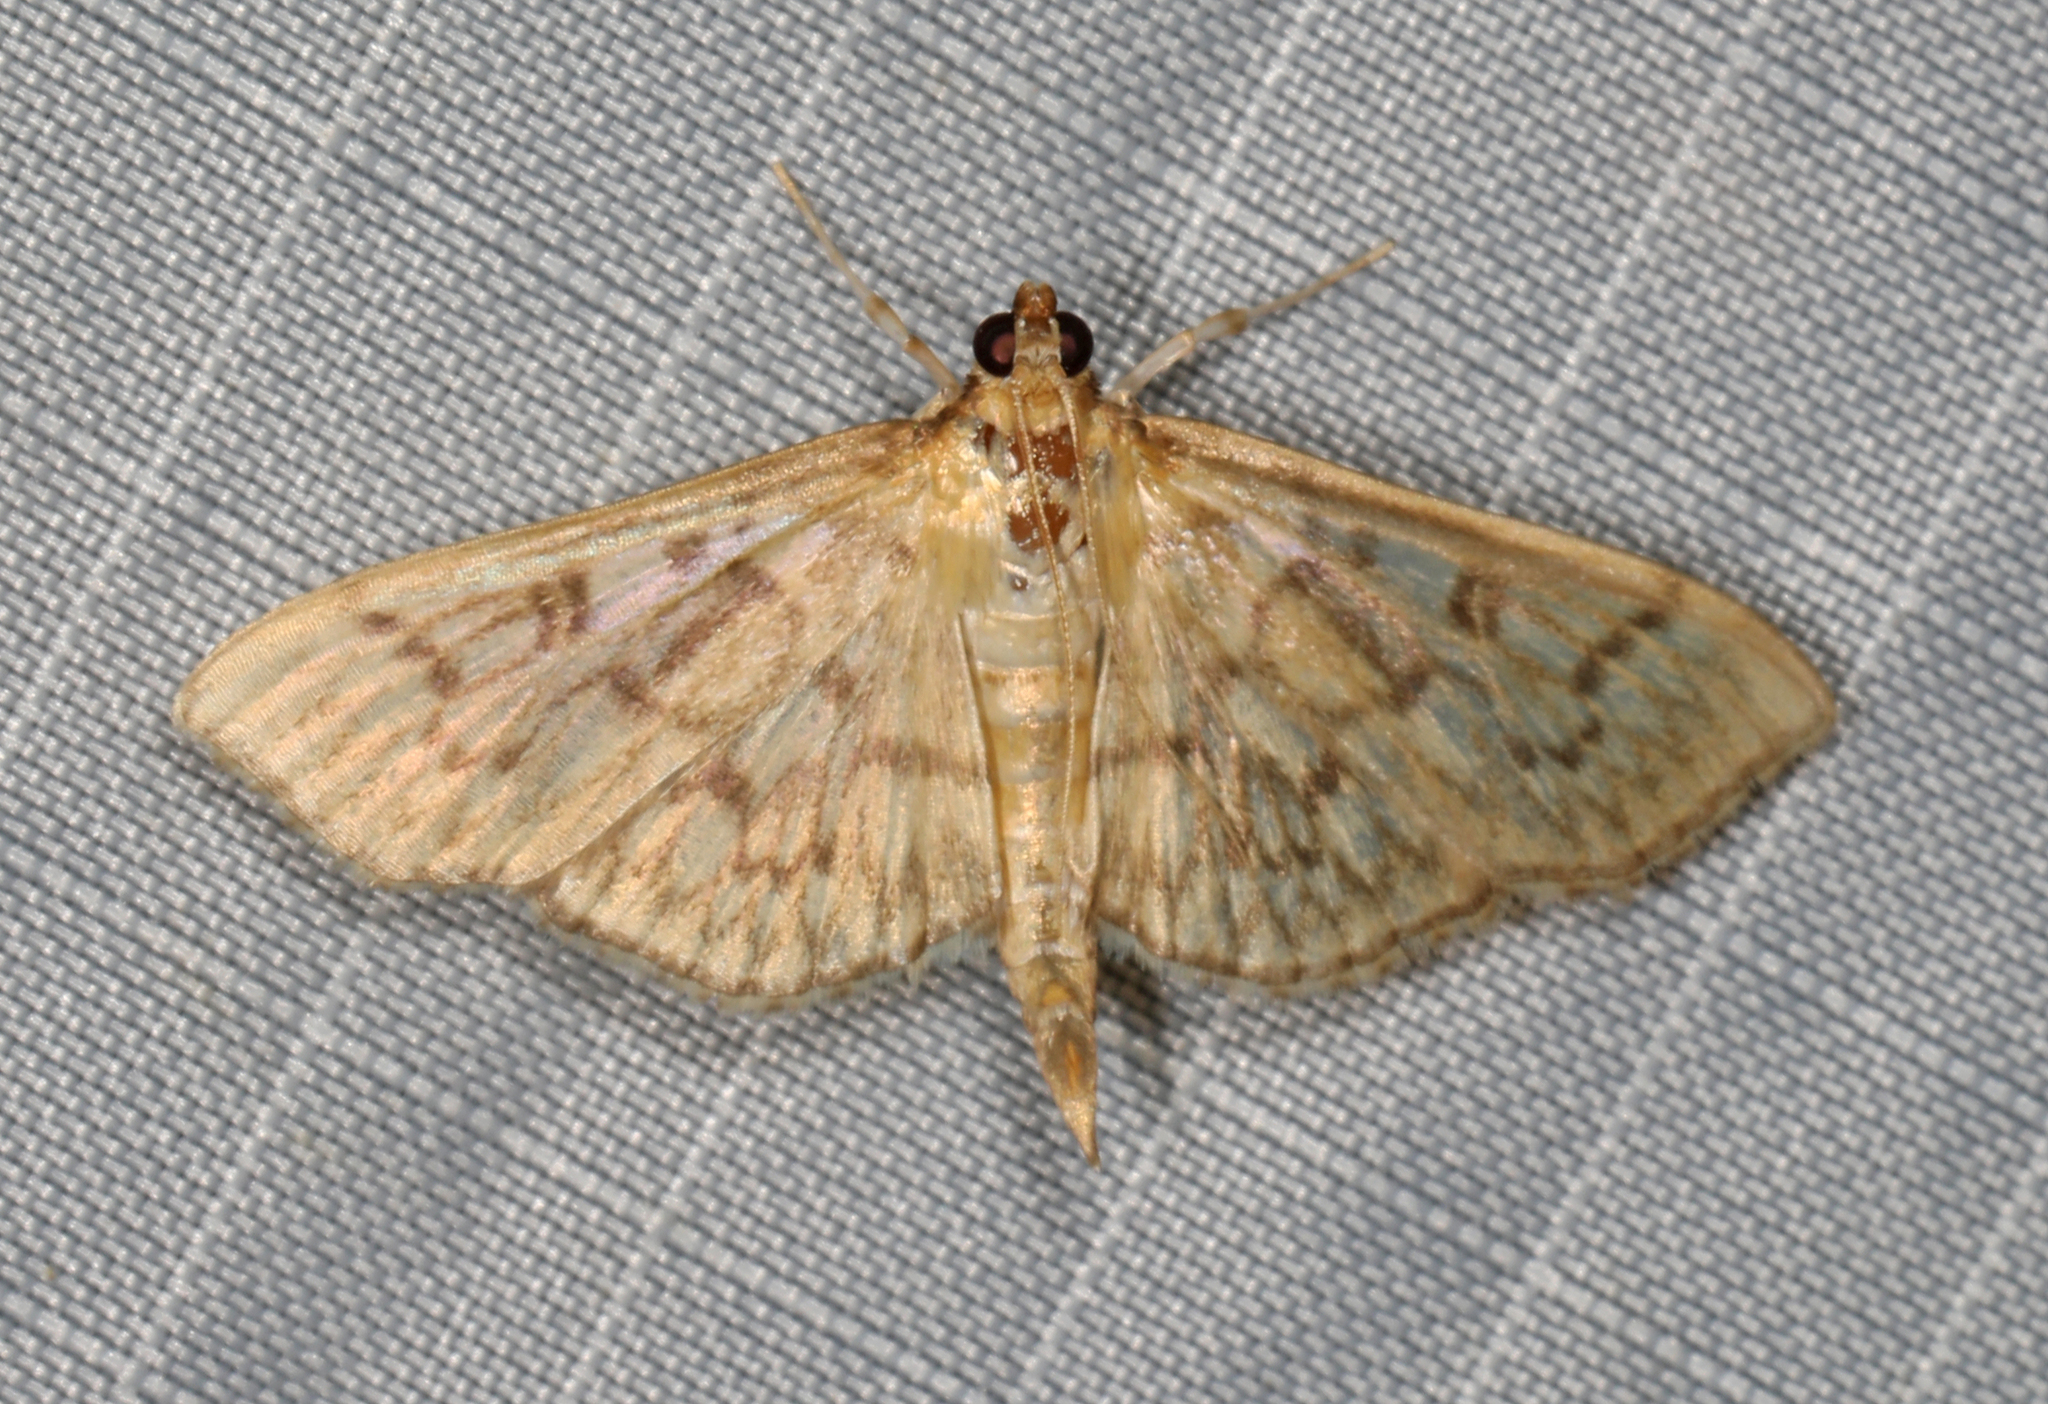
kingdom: Animalia
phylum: Arthropoda
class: Insecta
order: Lepidoptera
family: Crambidae
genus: Herpetogramma
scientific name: Herpetogramma pertextalis
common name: Bold-feathered grass moth
